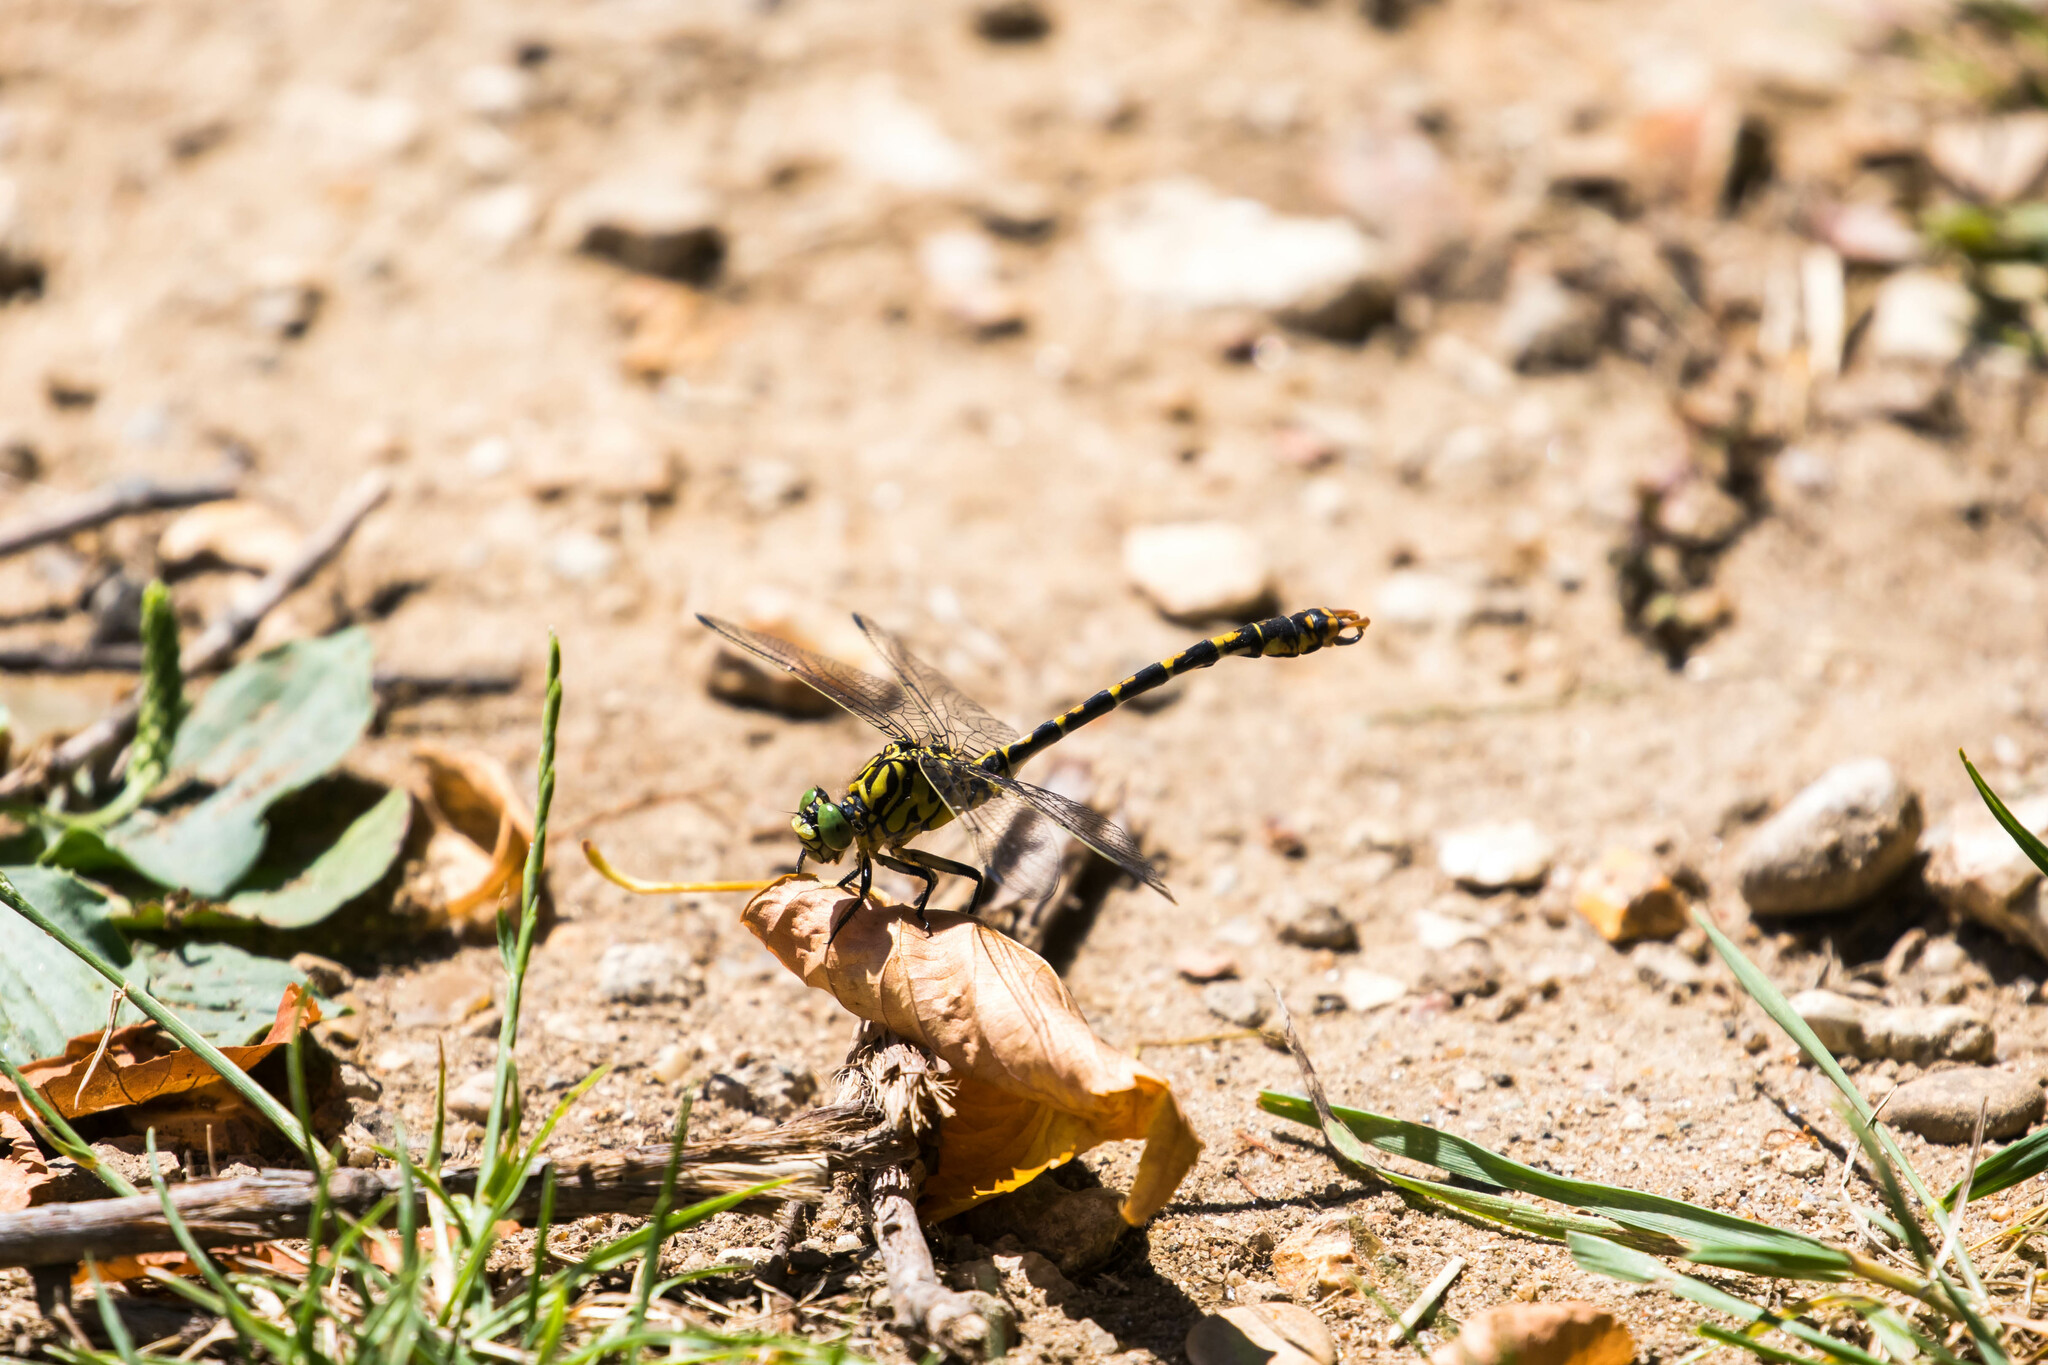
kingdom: Animalia
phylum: Arthropoda
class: Insecta
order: Odonata
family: Gomphidae
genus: Onychogomphus
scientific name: Onychogomphus forcipatus
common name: Small pincertail
